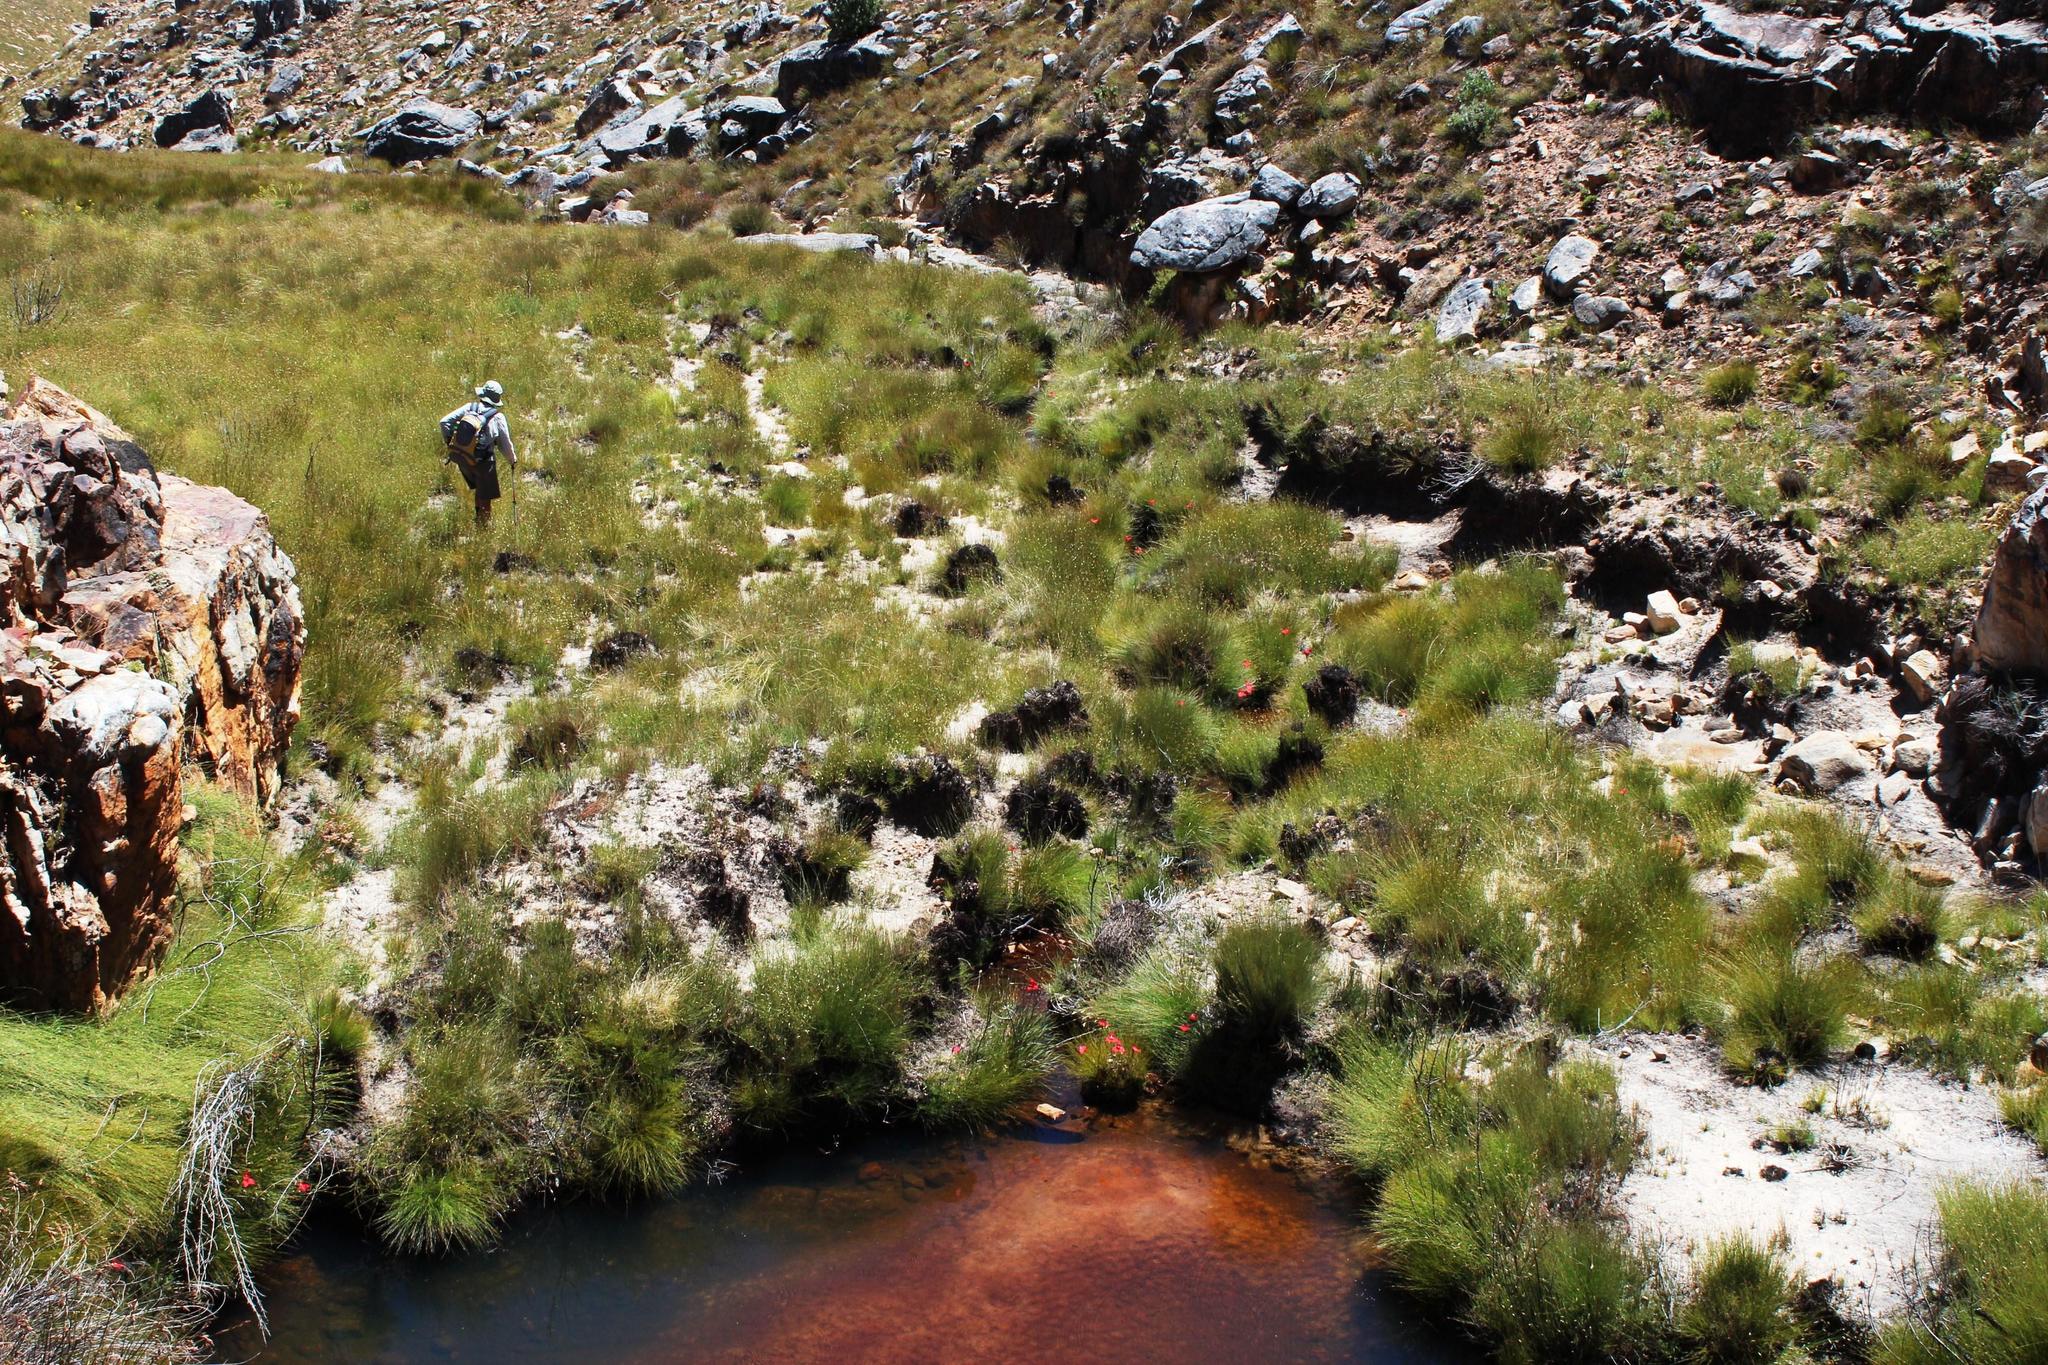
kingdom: Plantae
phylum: Tracheophyta
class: Liliopsida
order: Asparagales
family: Orchidaceae
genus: Disa
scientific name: Disa uniflora
